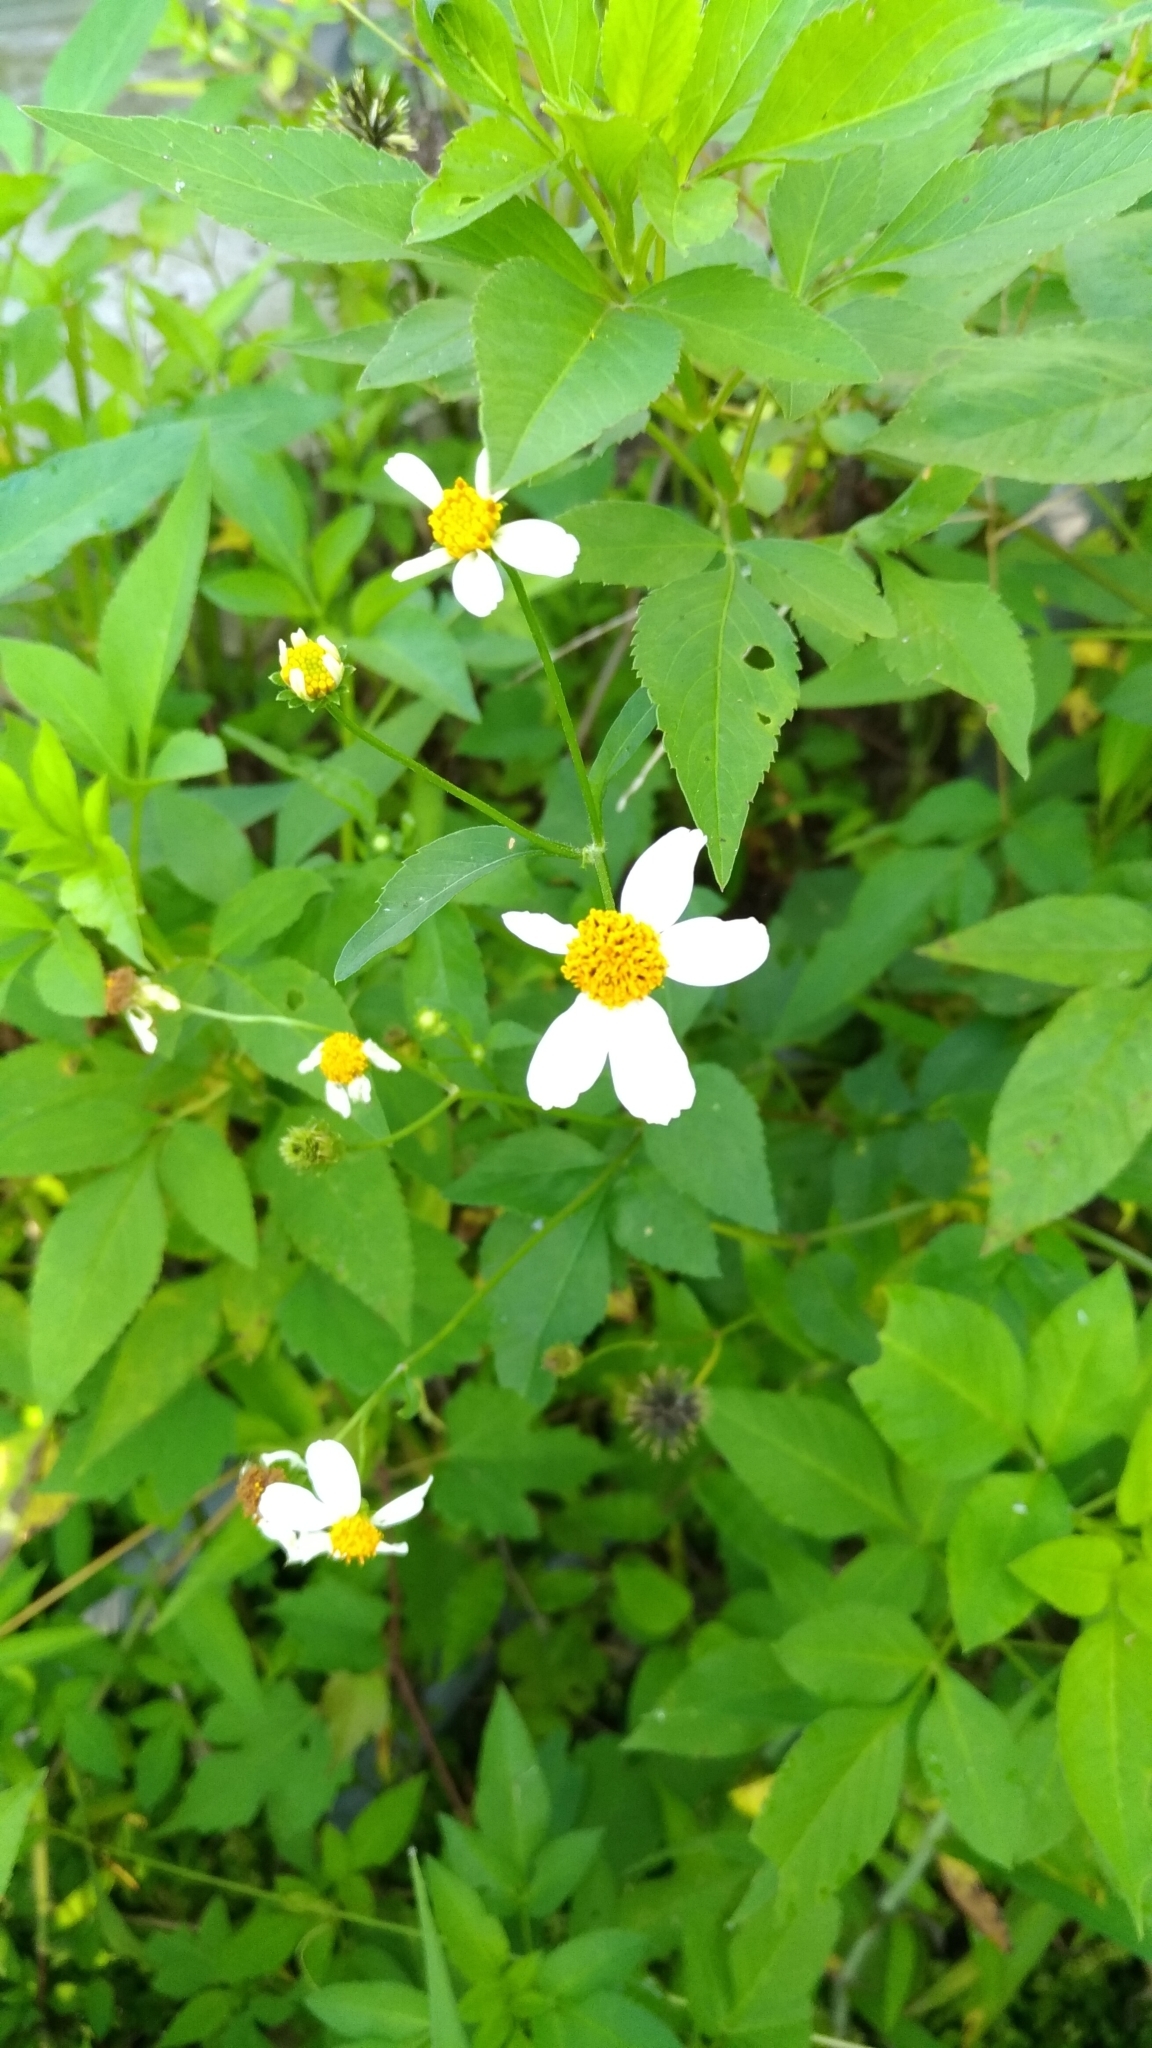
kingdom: Plantae
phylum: Tracheophyta
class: Magnoliopsida
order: Asterales
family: Asteraceae
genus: Bidens
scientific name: Bidens alba
